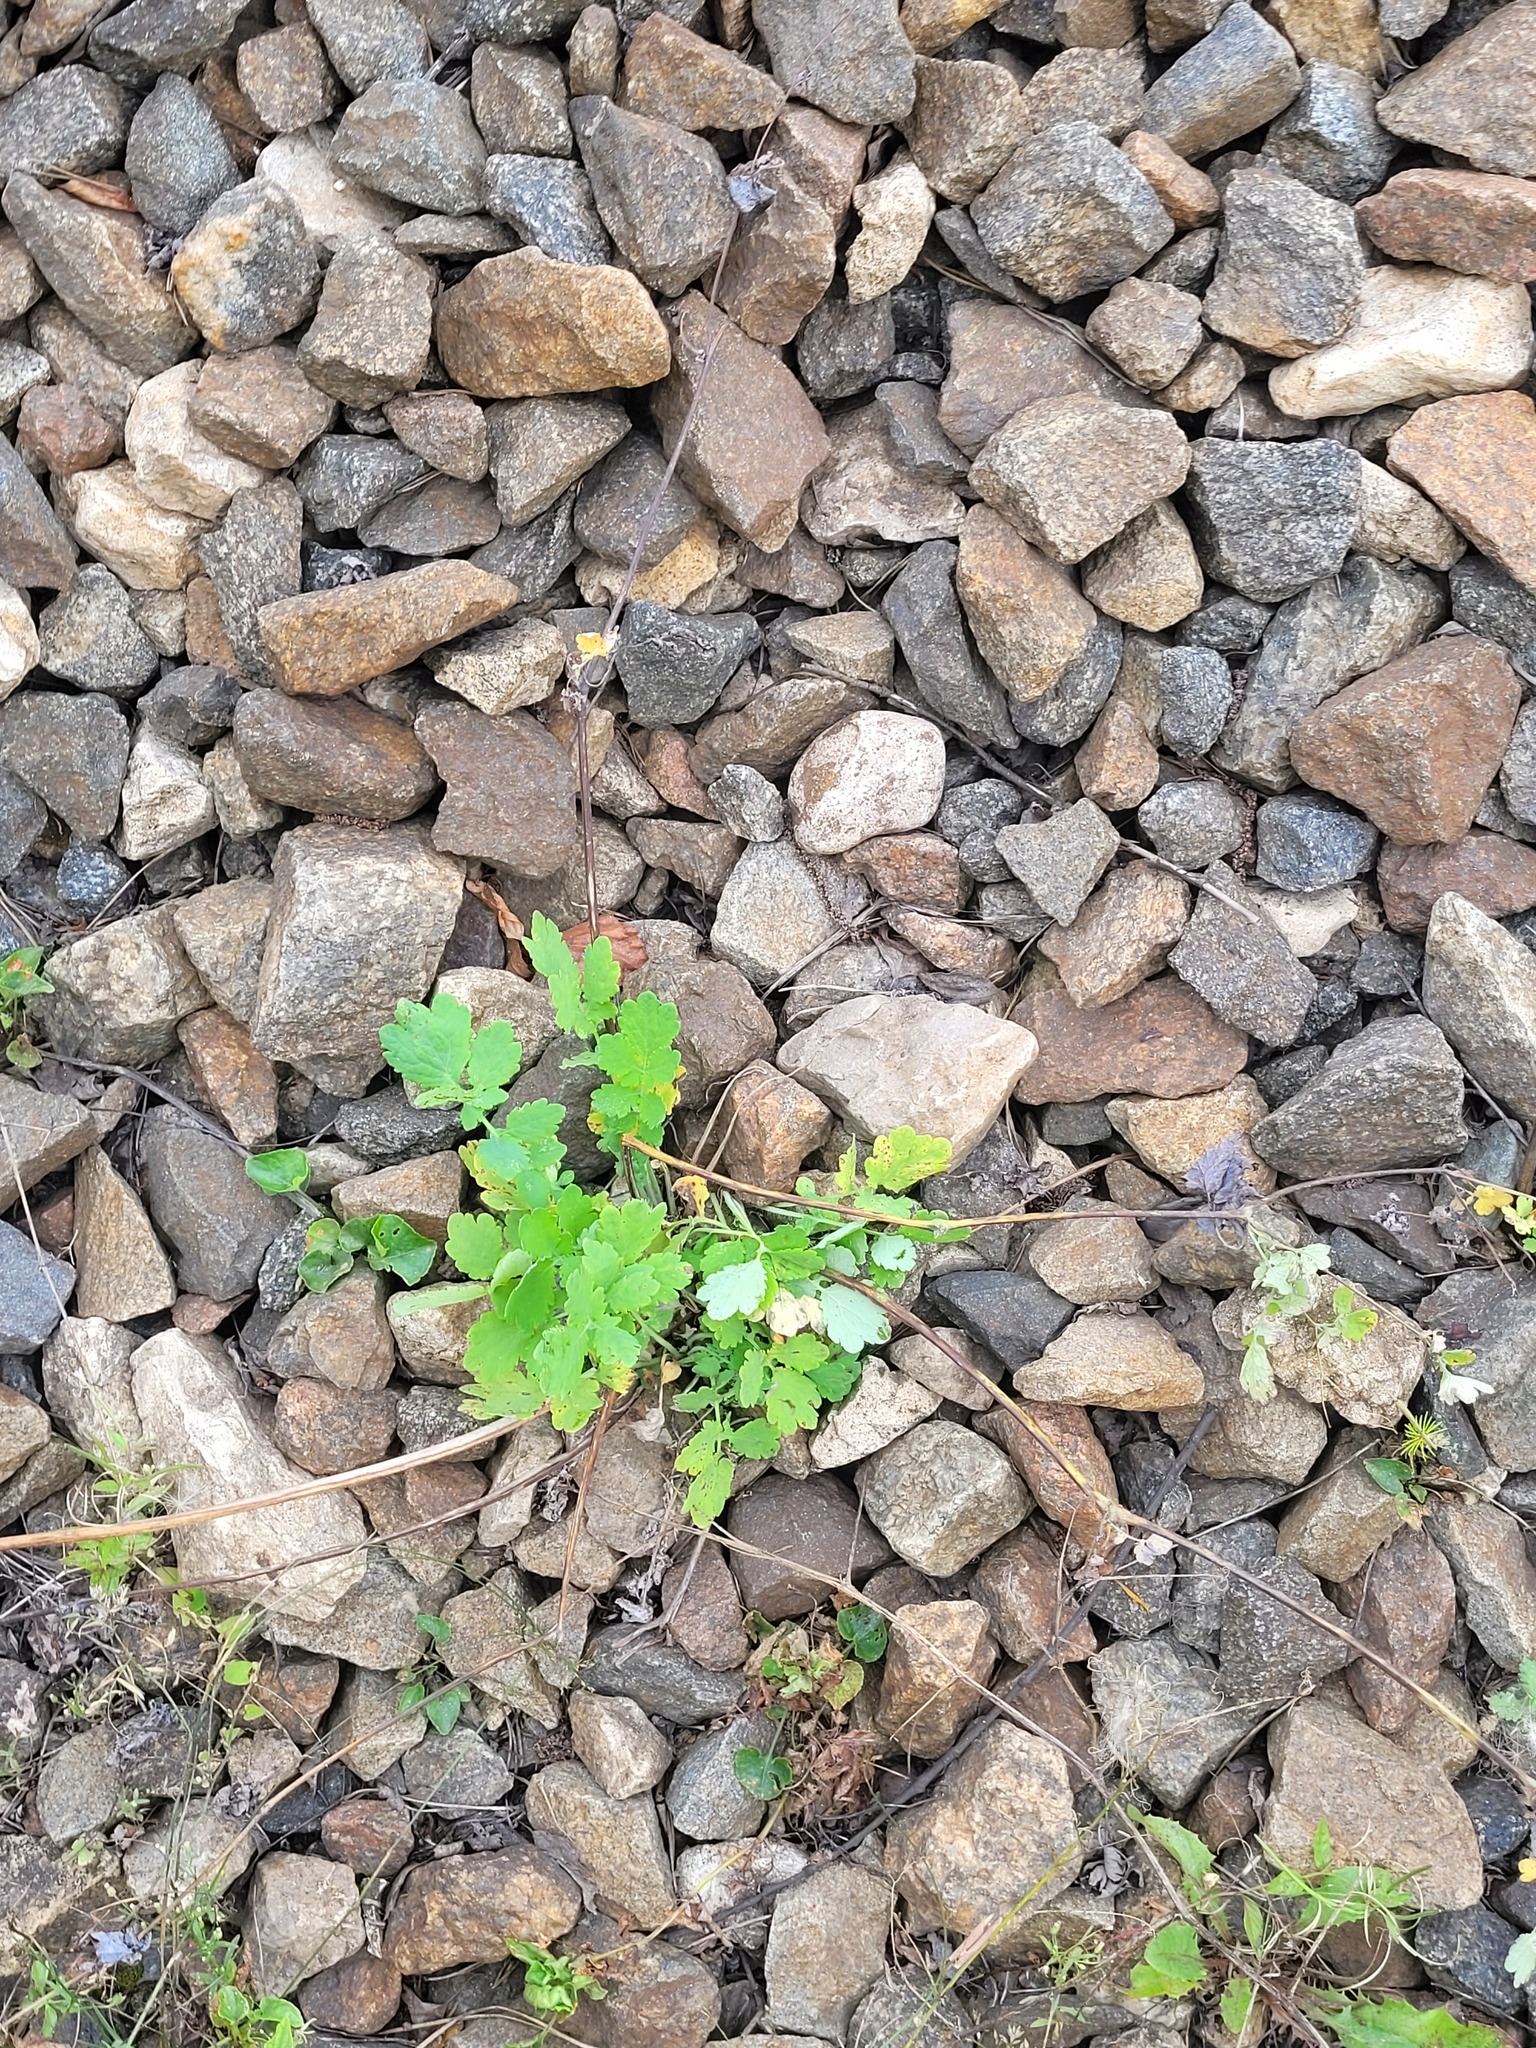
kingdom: Plantae
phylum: Tracheophyta
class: Magnoliopsida
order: Ranunculales
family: Papaveraceae
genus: Chelidonium
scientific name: Chelidonium majus
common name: Greater celandine
